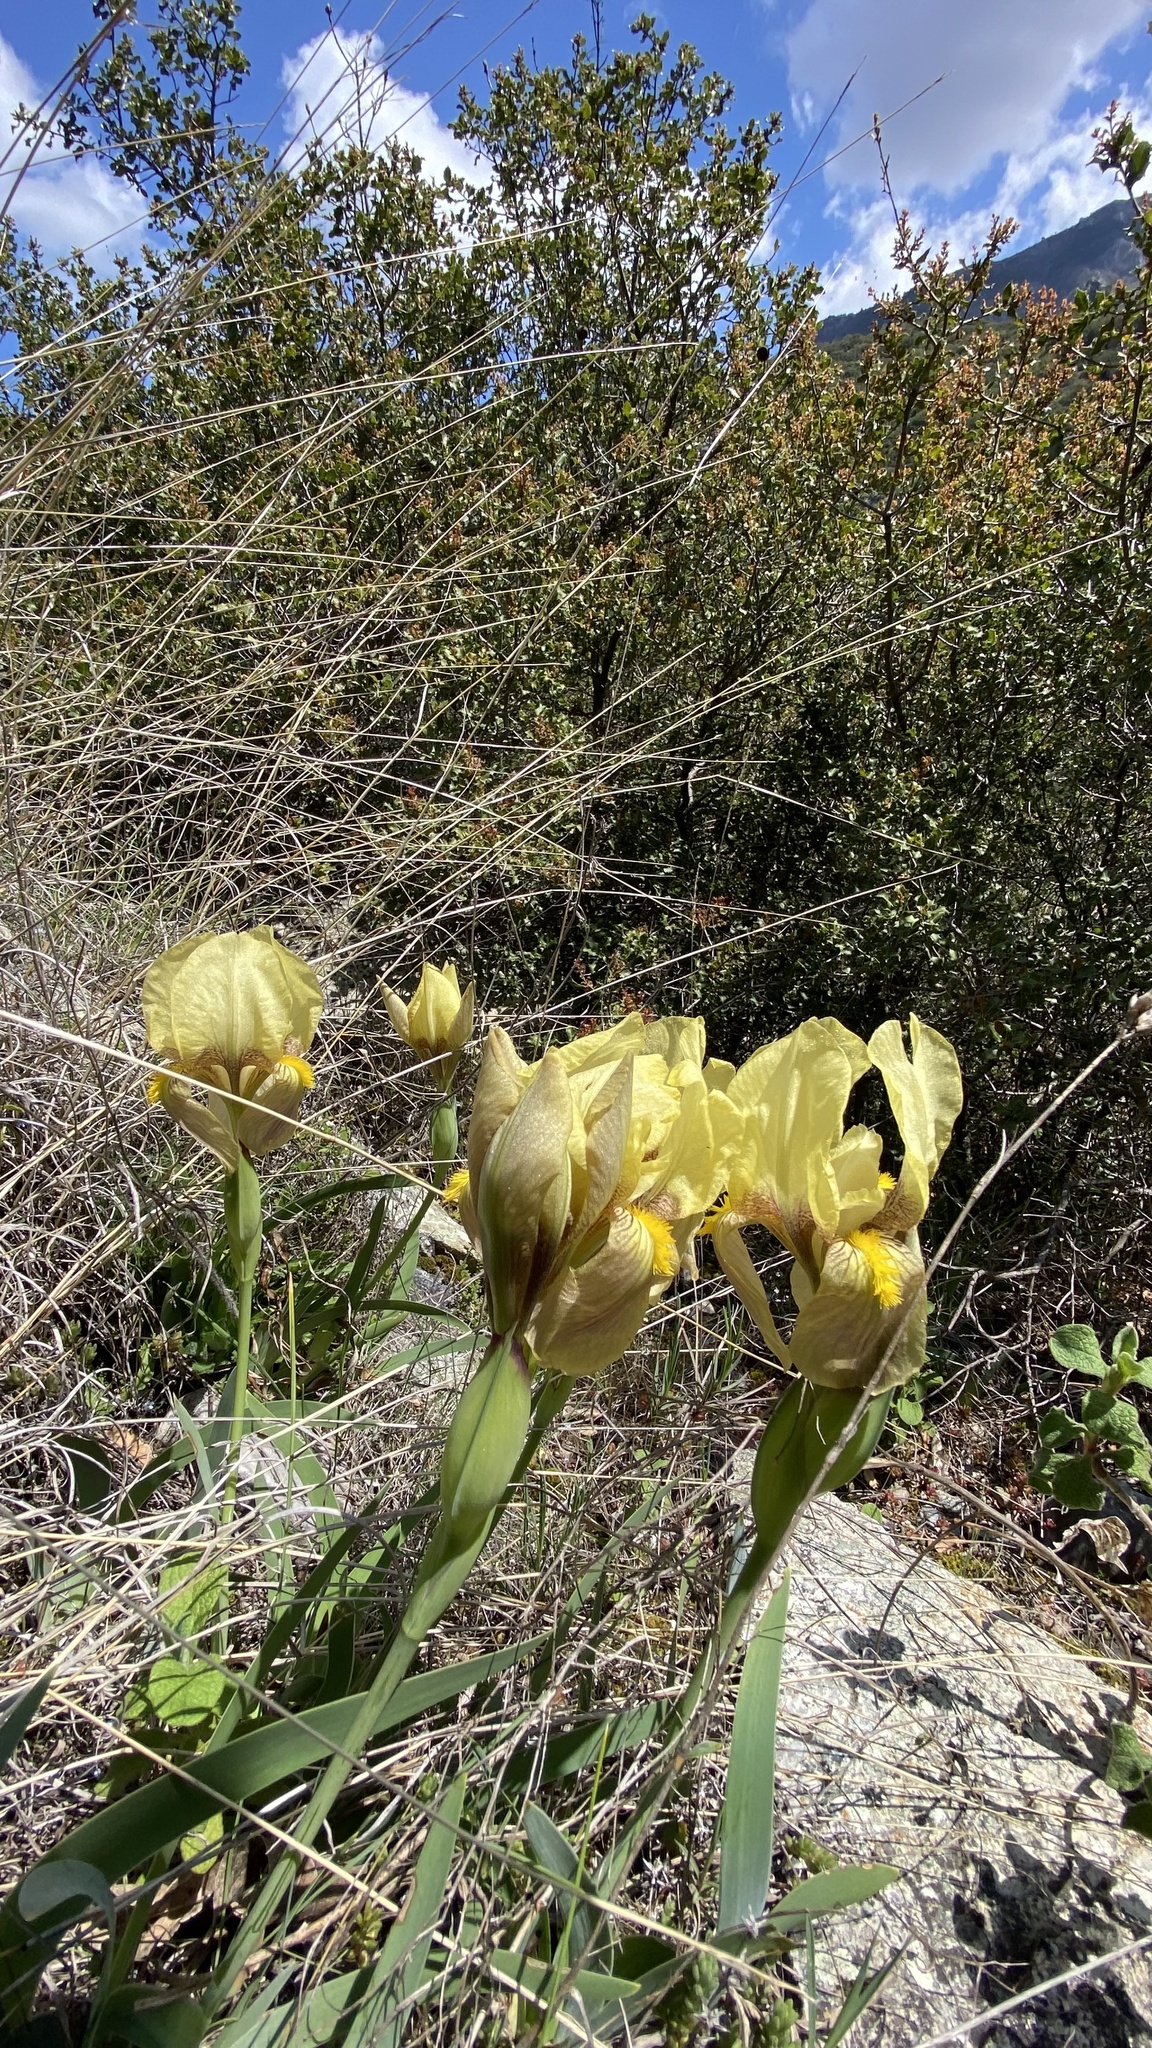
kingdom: Plantae
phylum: Tracheophyta
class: Liliopsida
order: Asparagales
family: Iridaceae
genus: Iris
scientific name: Iris reichenbachii
